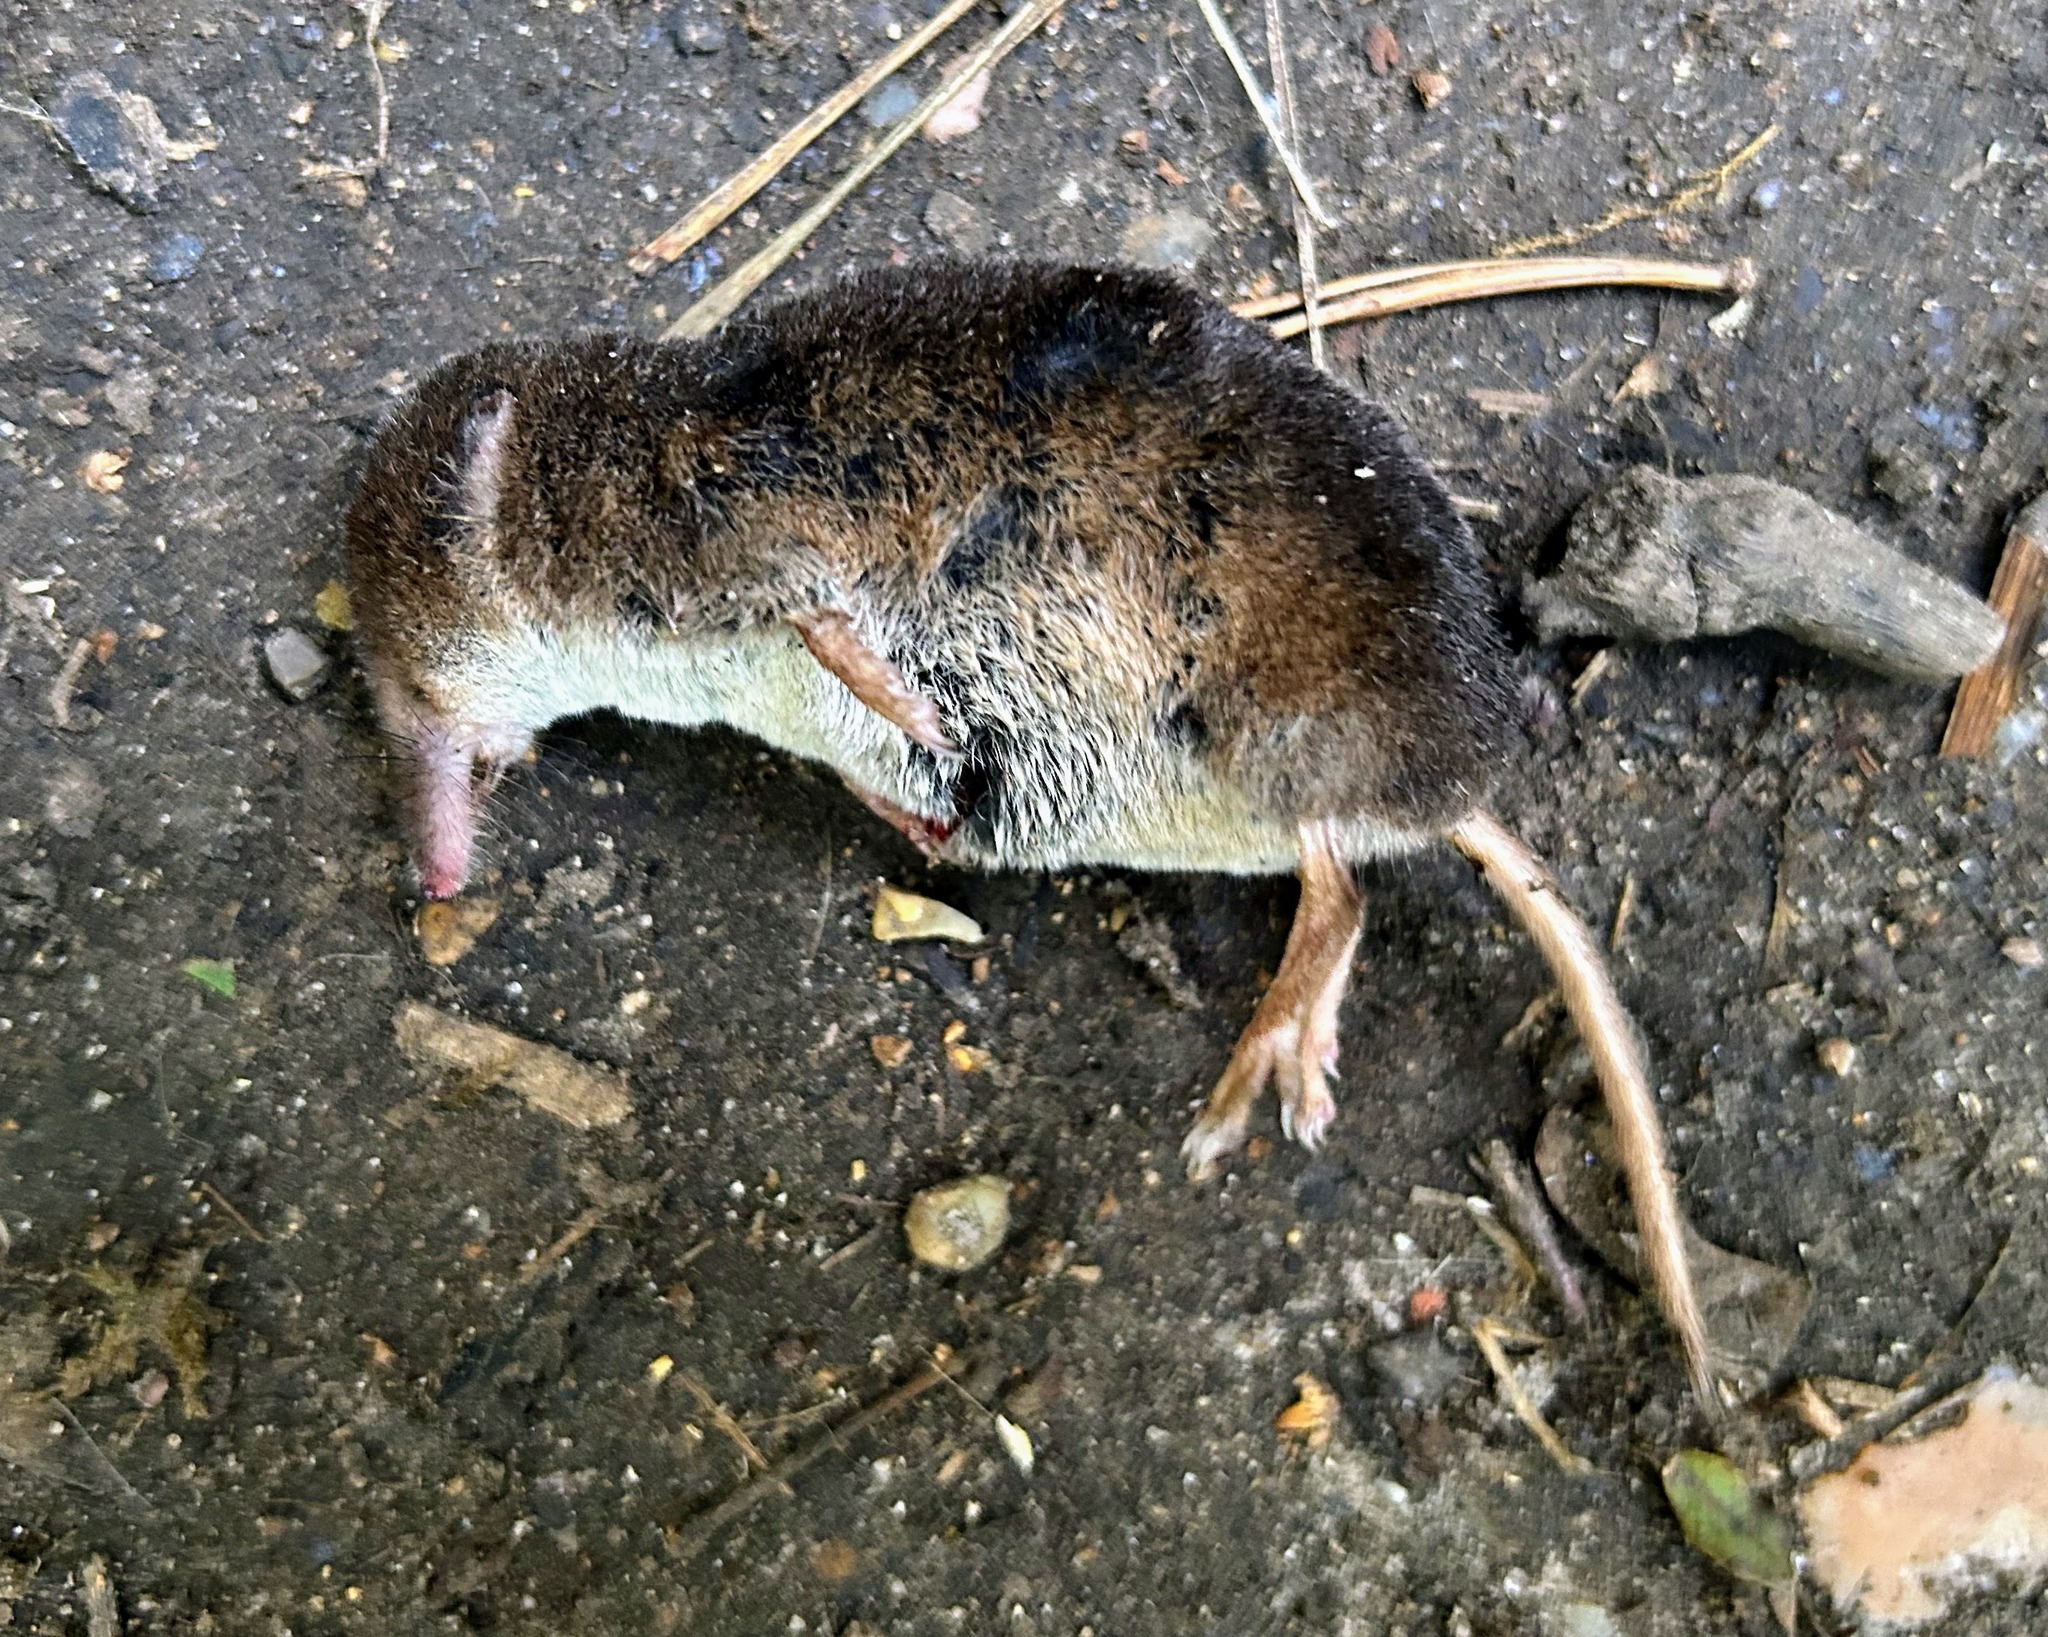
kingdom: Animalia
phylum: Chordata
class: Mammalia
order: Soricomorpha
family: Soricidae
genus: Sorex
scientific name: Sorex araneus
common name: Common shrew
